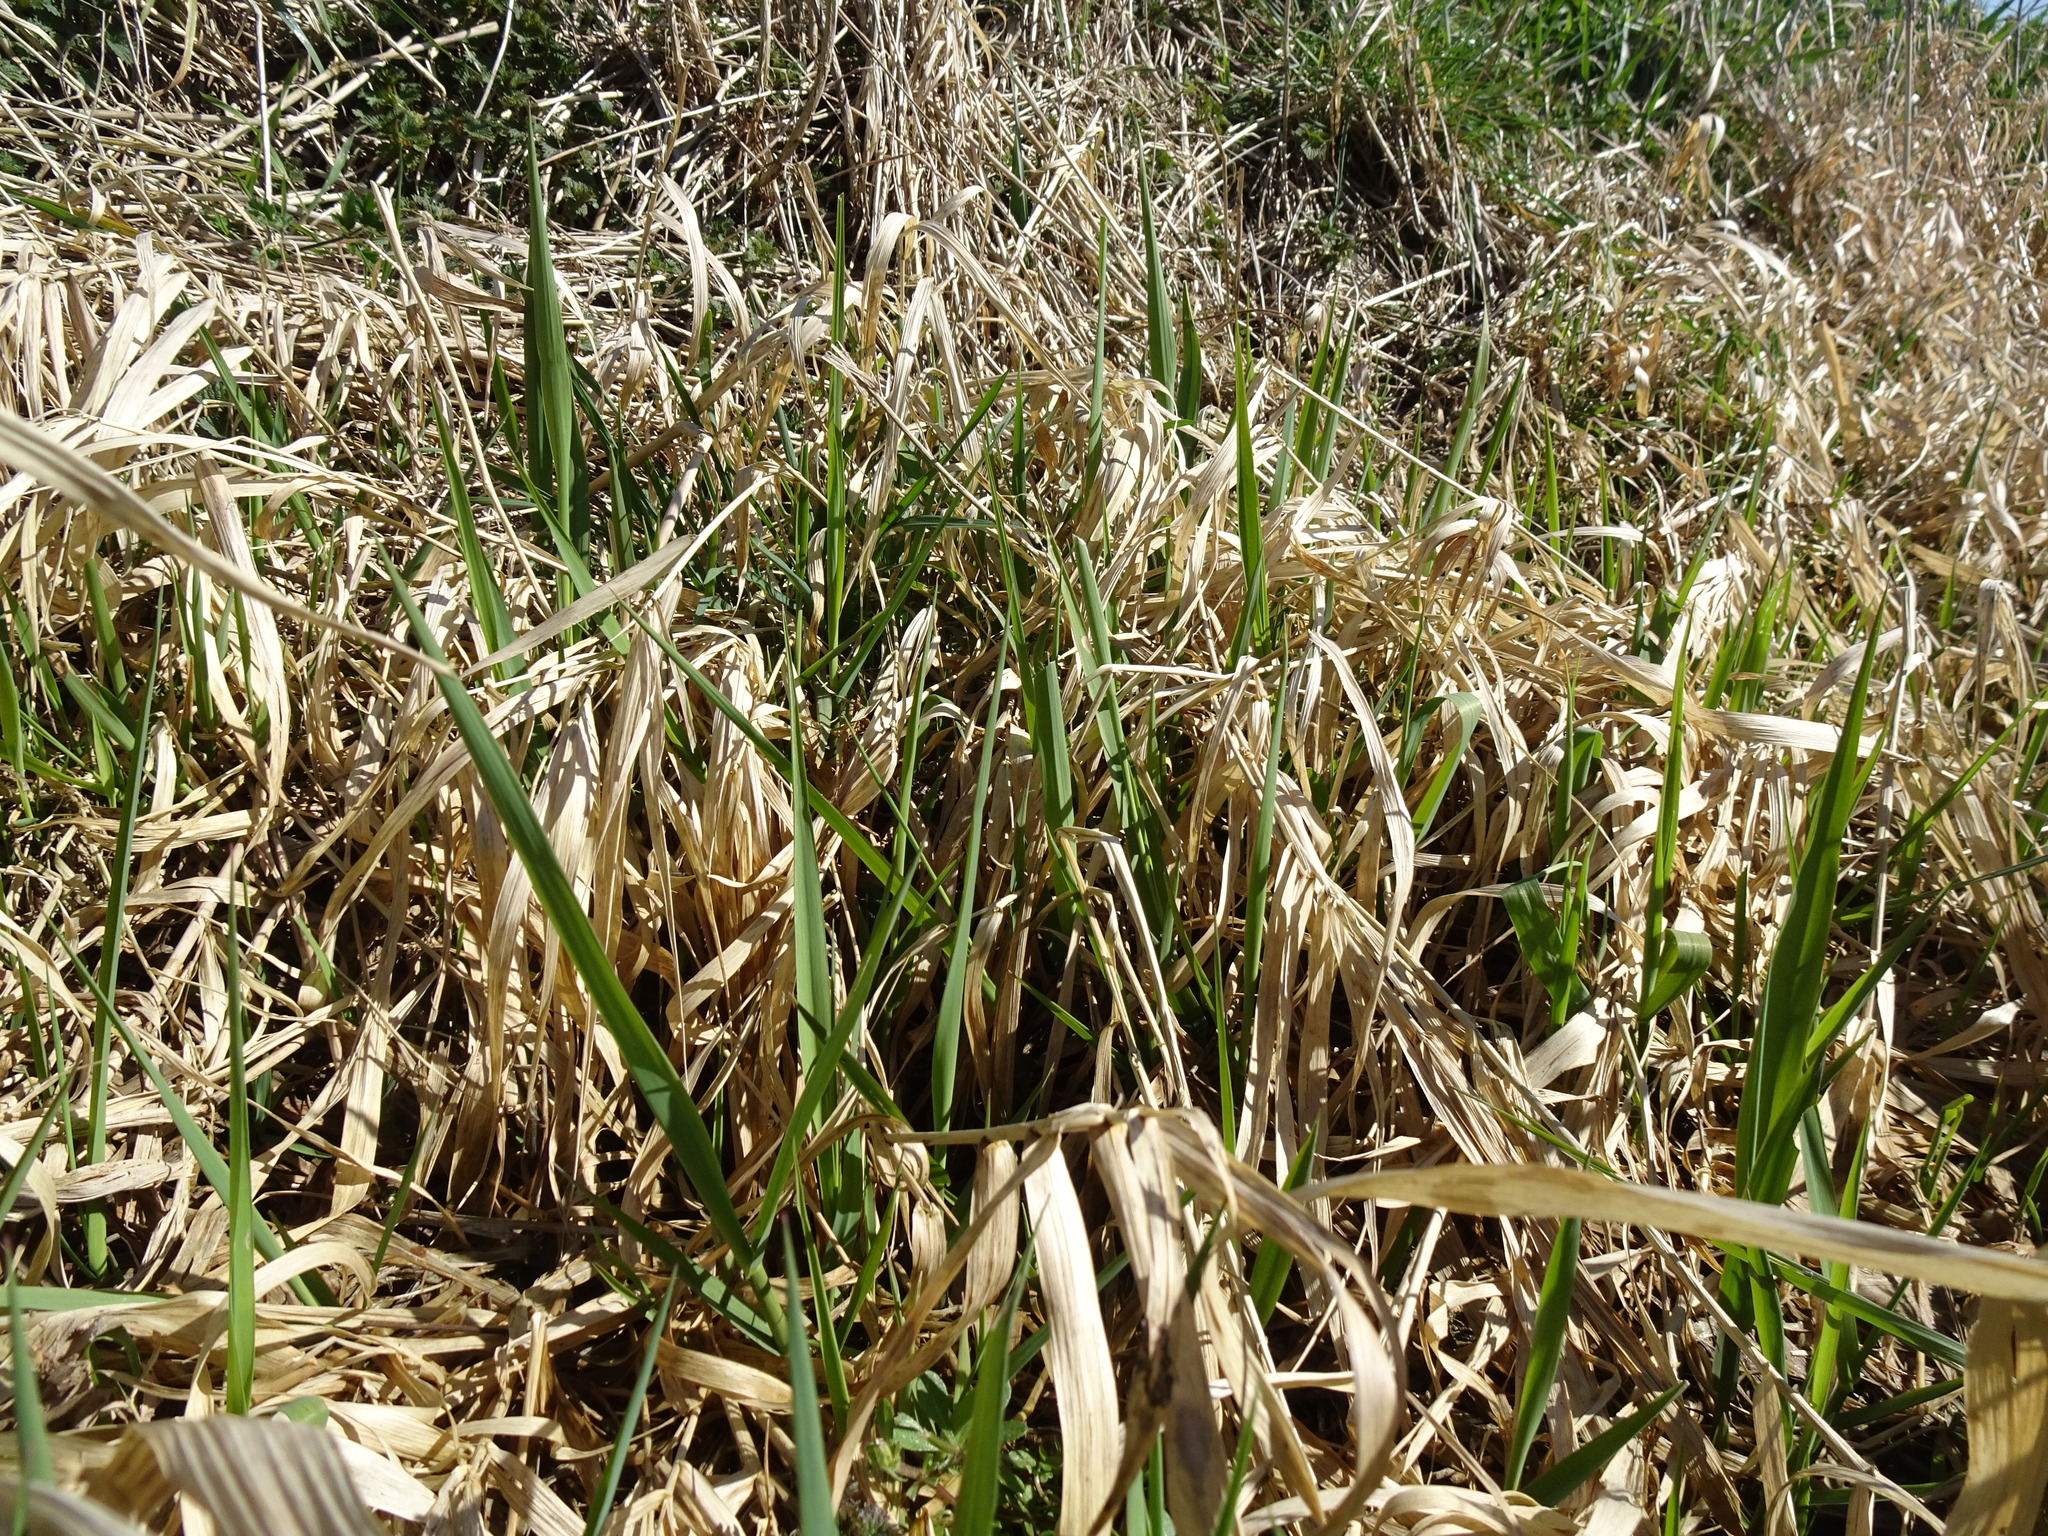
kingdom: Plantae
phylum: Tracheophyta
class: Liliopsida
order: Poales
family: Poaceae
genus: Phalaris
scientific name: Phalaris arundinacea
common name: Reed canary-grass
